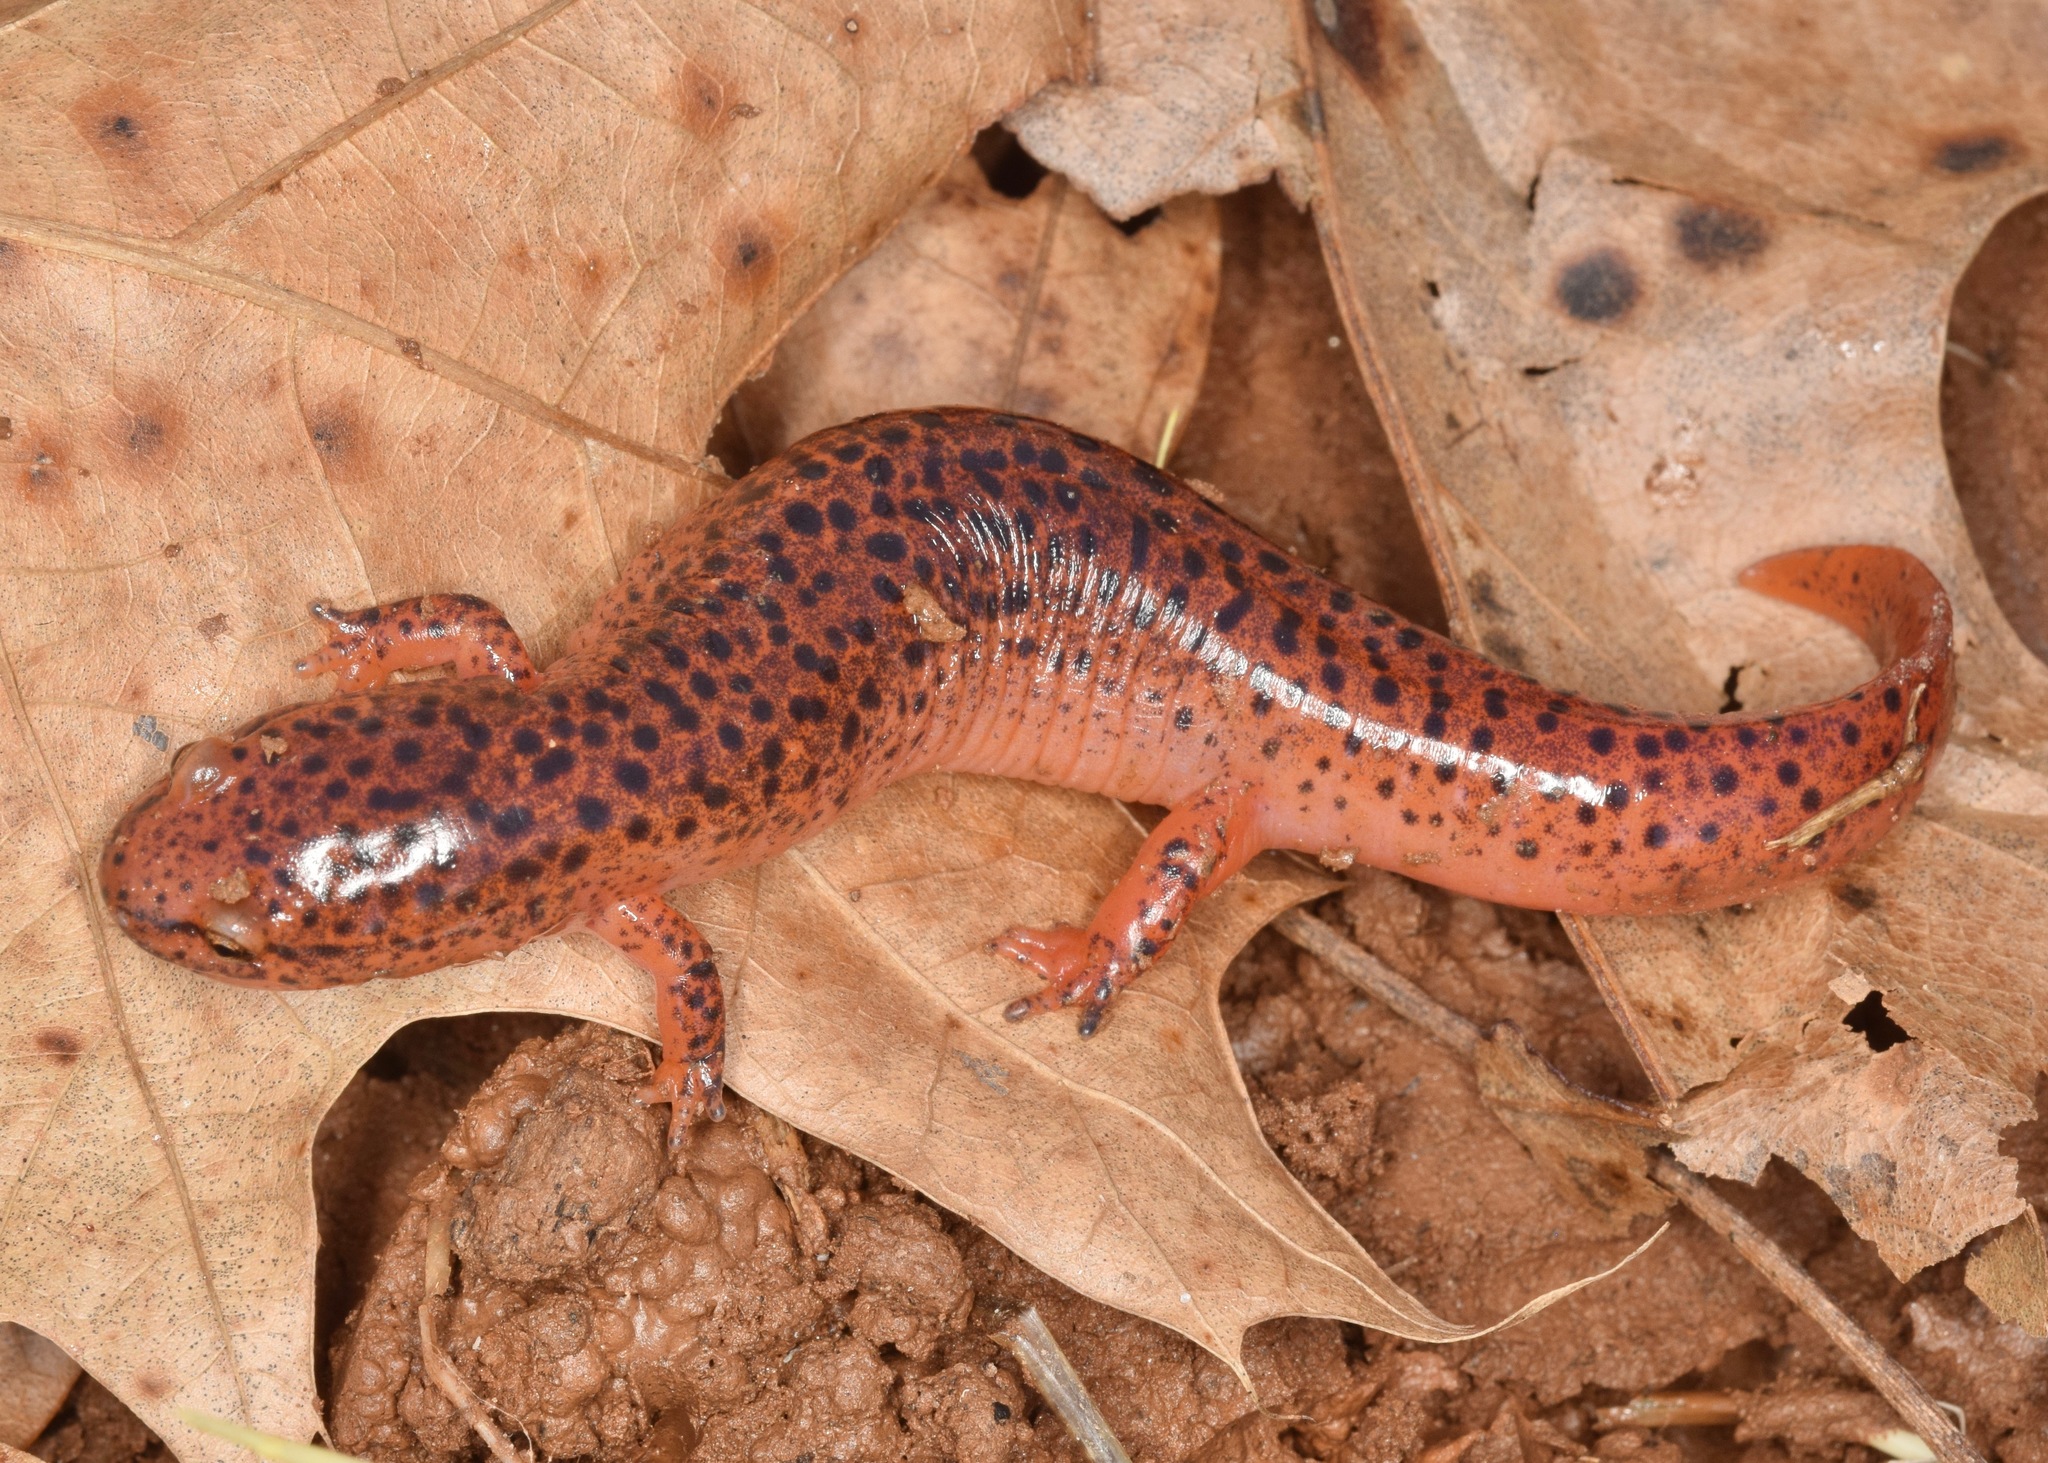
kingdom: Animalia
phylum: Chordata
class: Amphibia
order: Caudata
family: Plethodontidae
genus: Pseudotriton
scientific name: Pseudotriton ruber
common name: Red salamander
